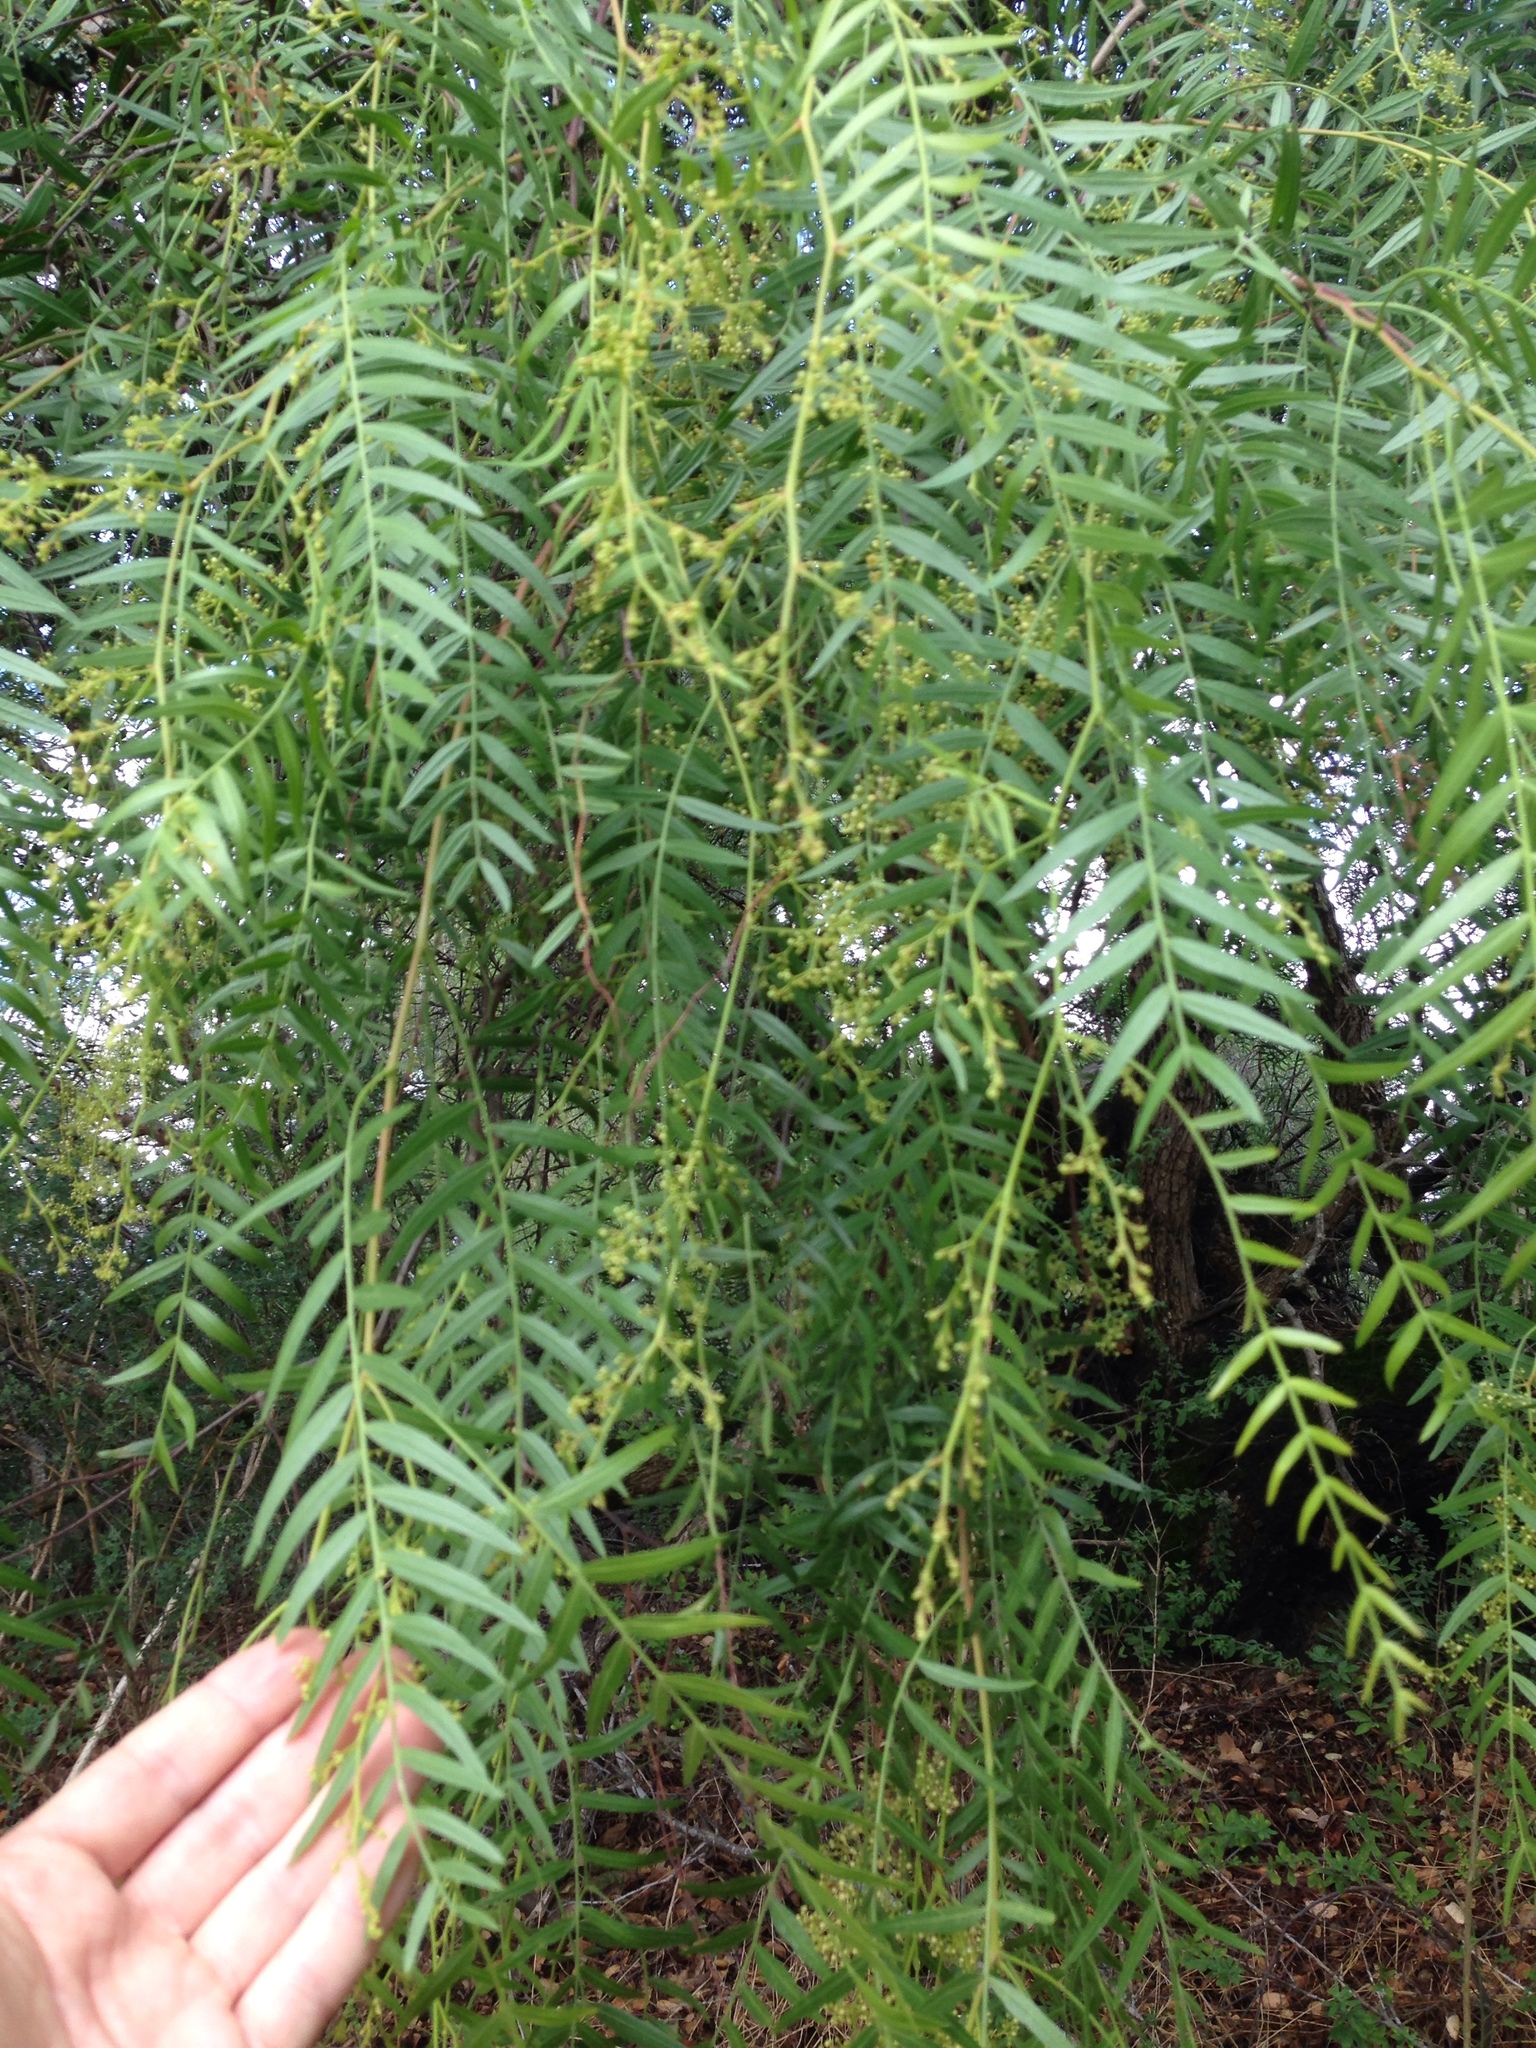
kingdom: Plantae
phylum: Tracheophyta
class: Magnoliopsida
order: Sapindales
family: Anacardiaceae
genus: Schinus
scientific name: Schinus molle
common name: Peruvian peppertree
